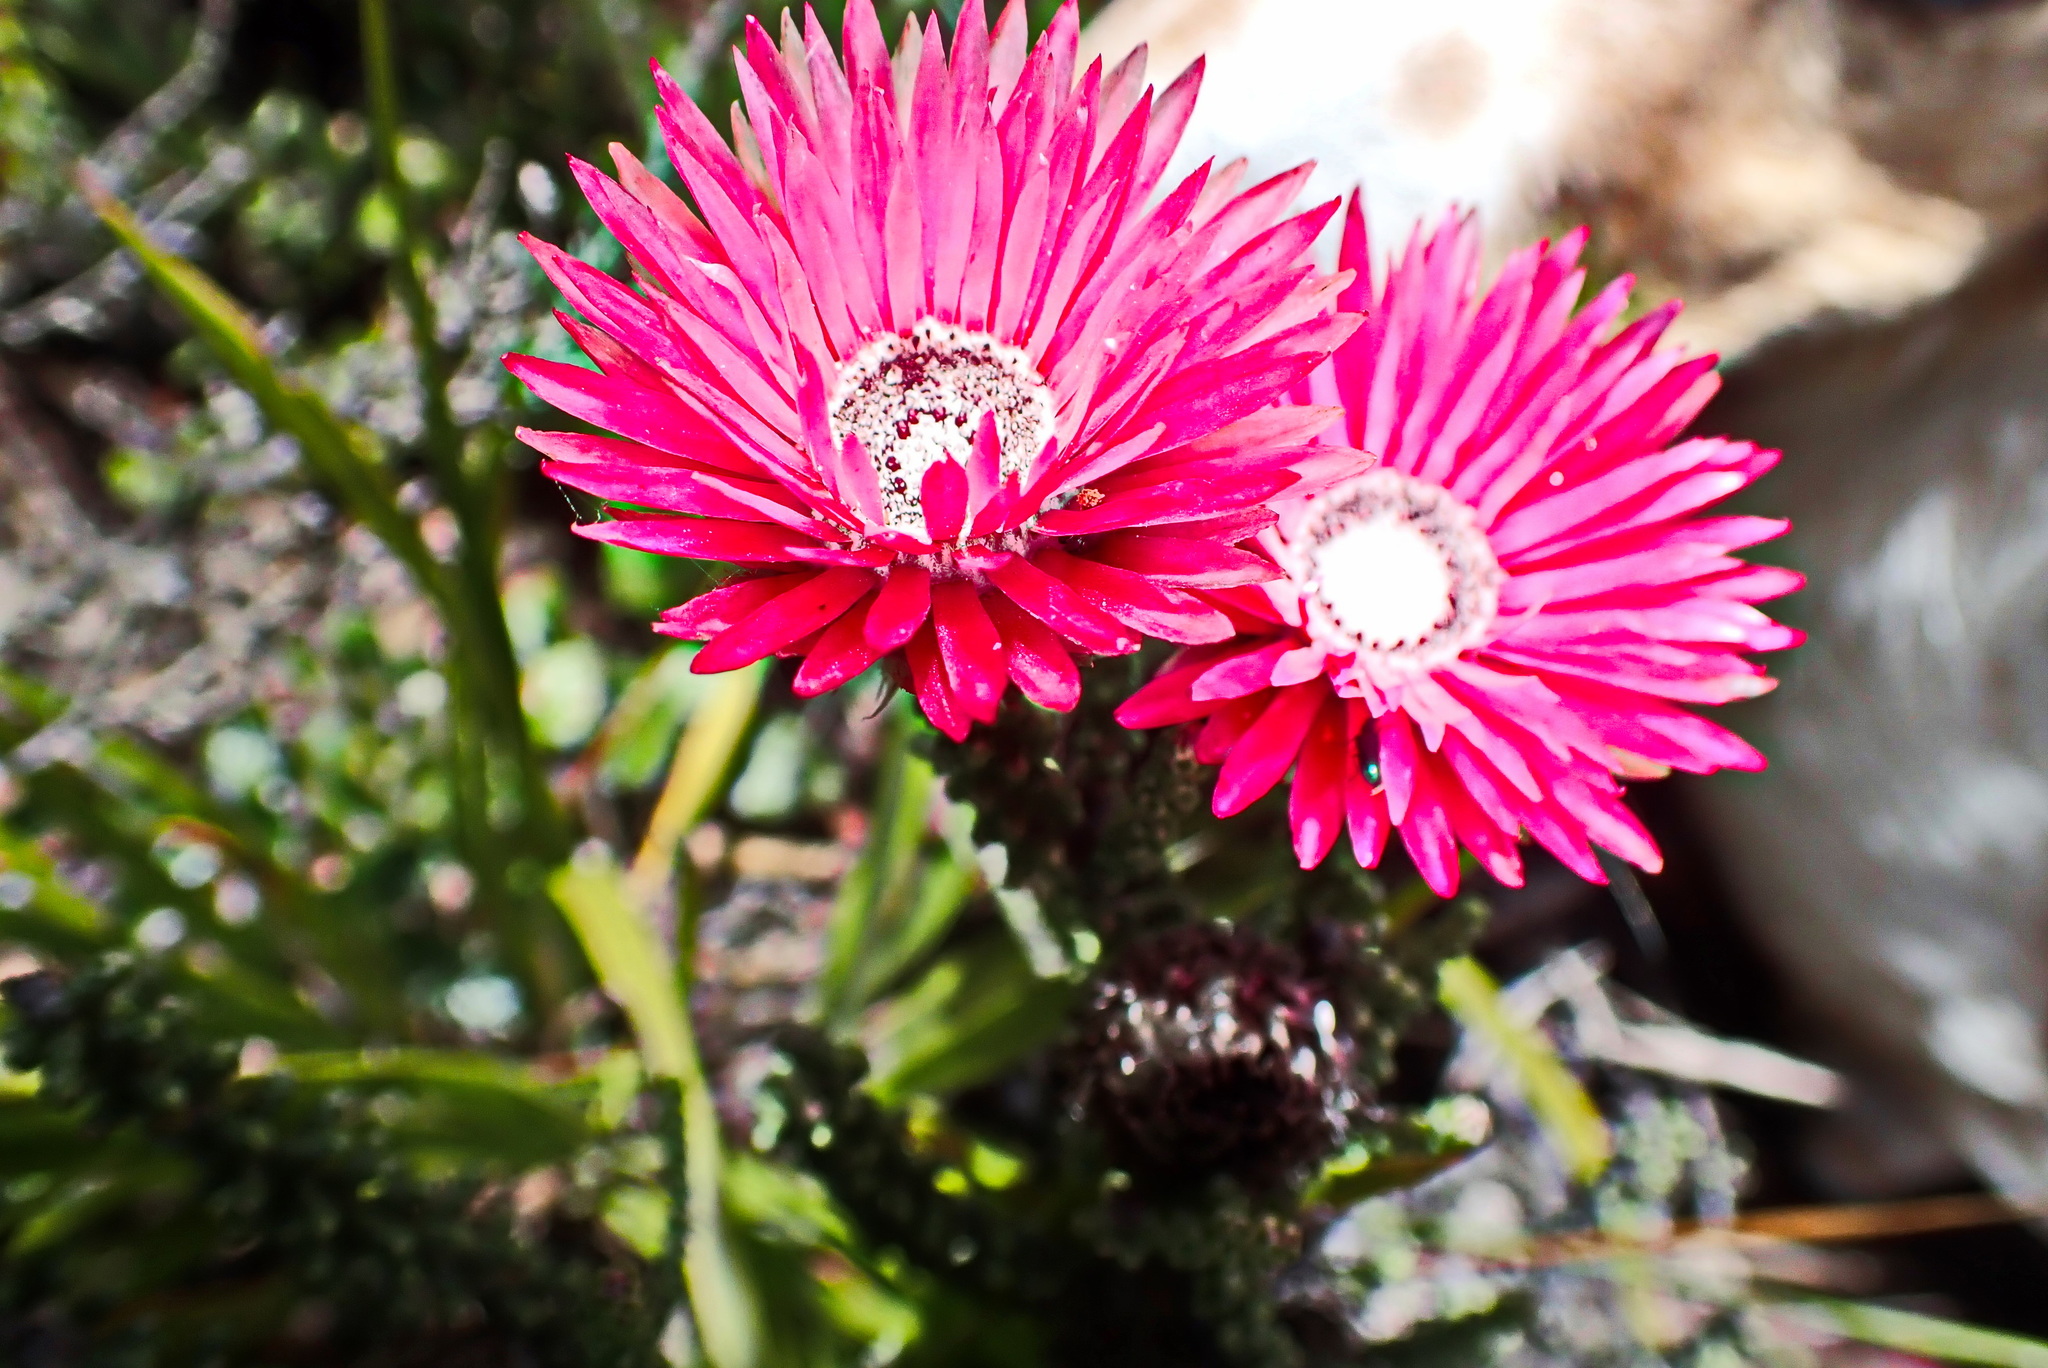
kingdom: Plantae
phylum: Tracheophyta
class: Magnoliopsida
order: Asterales
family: Asteraceae
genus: Phaenocoma
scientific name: Phaenocoma prolifera
